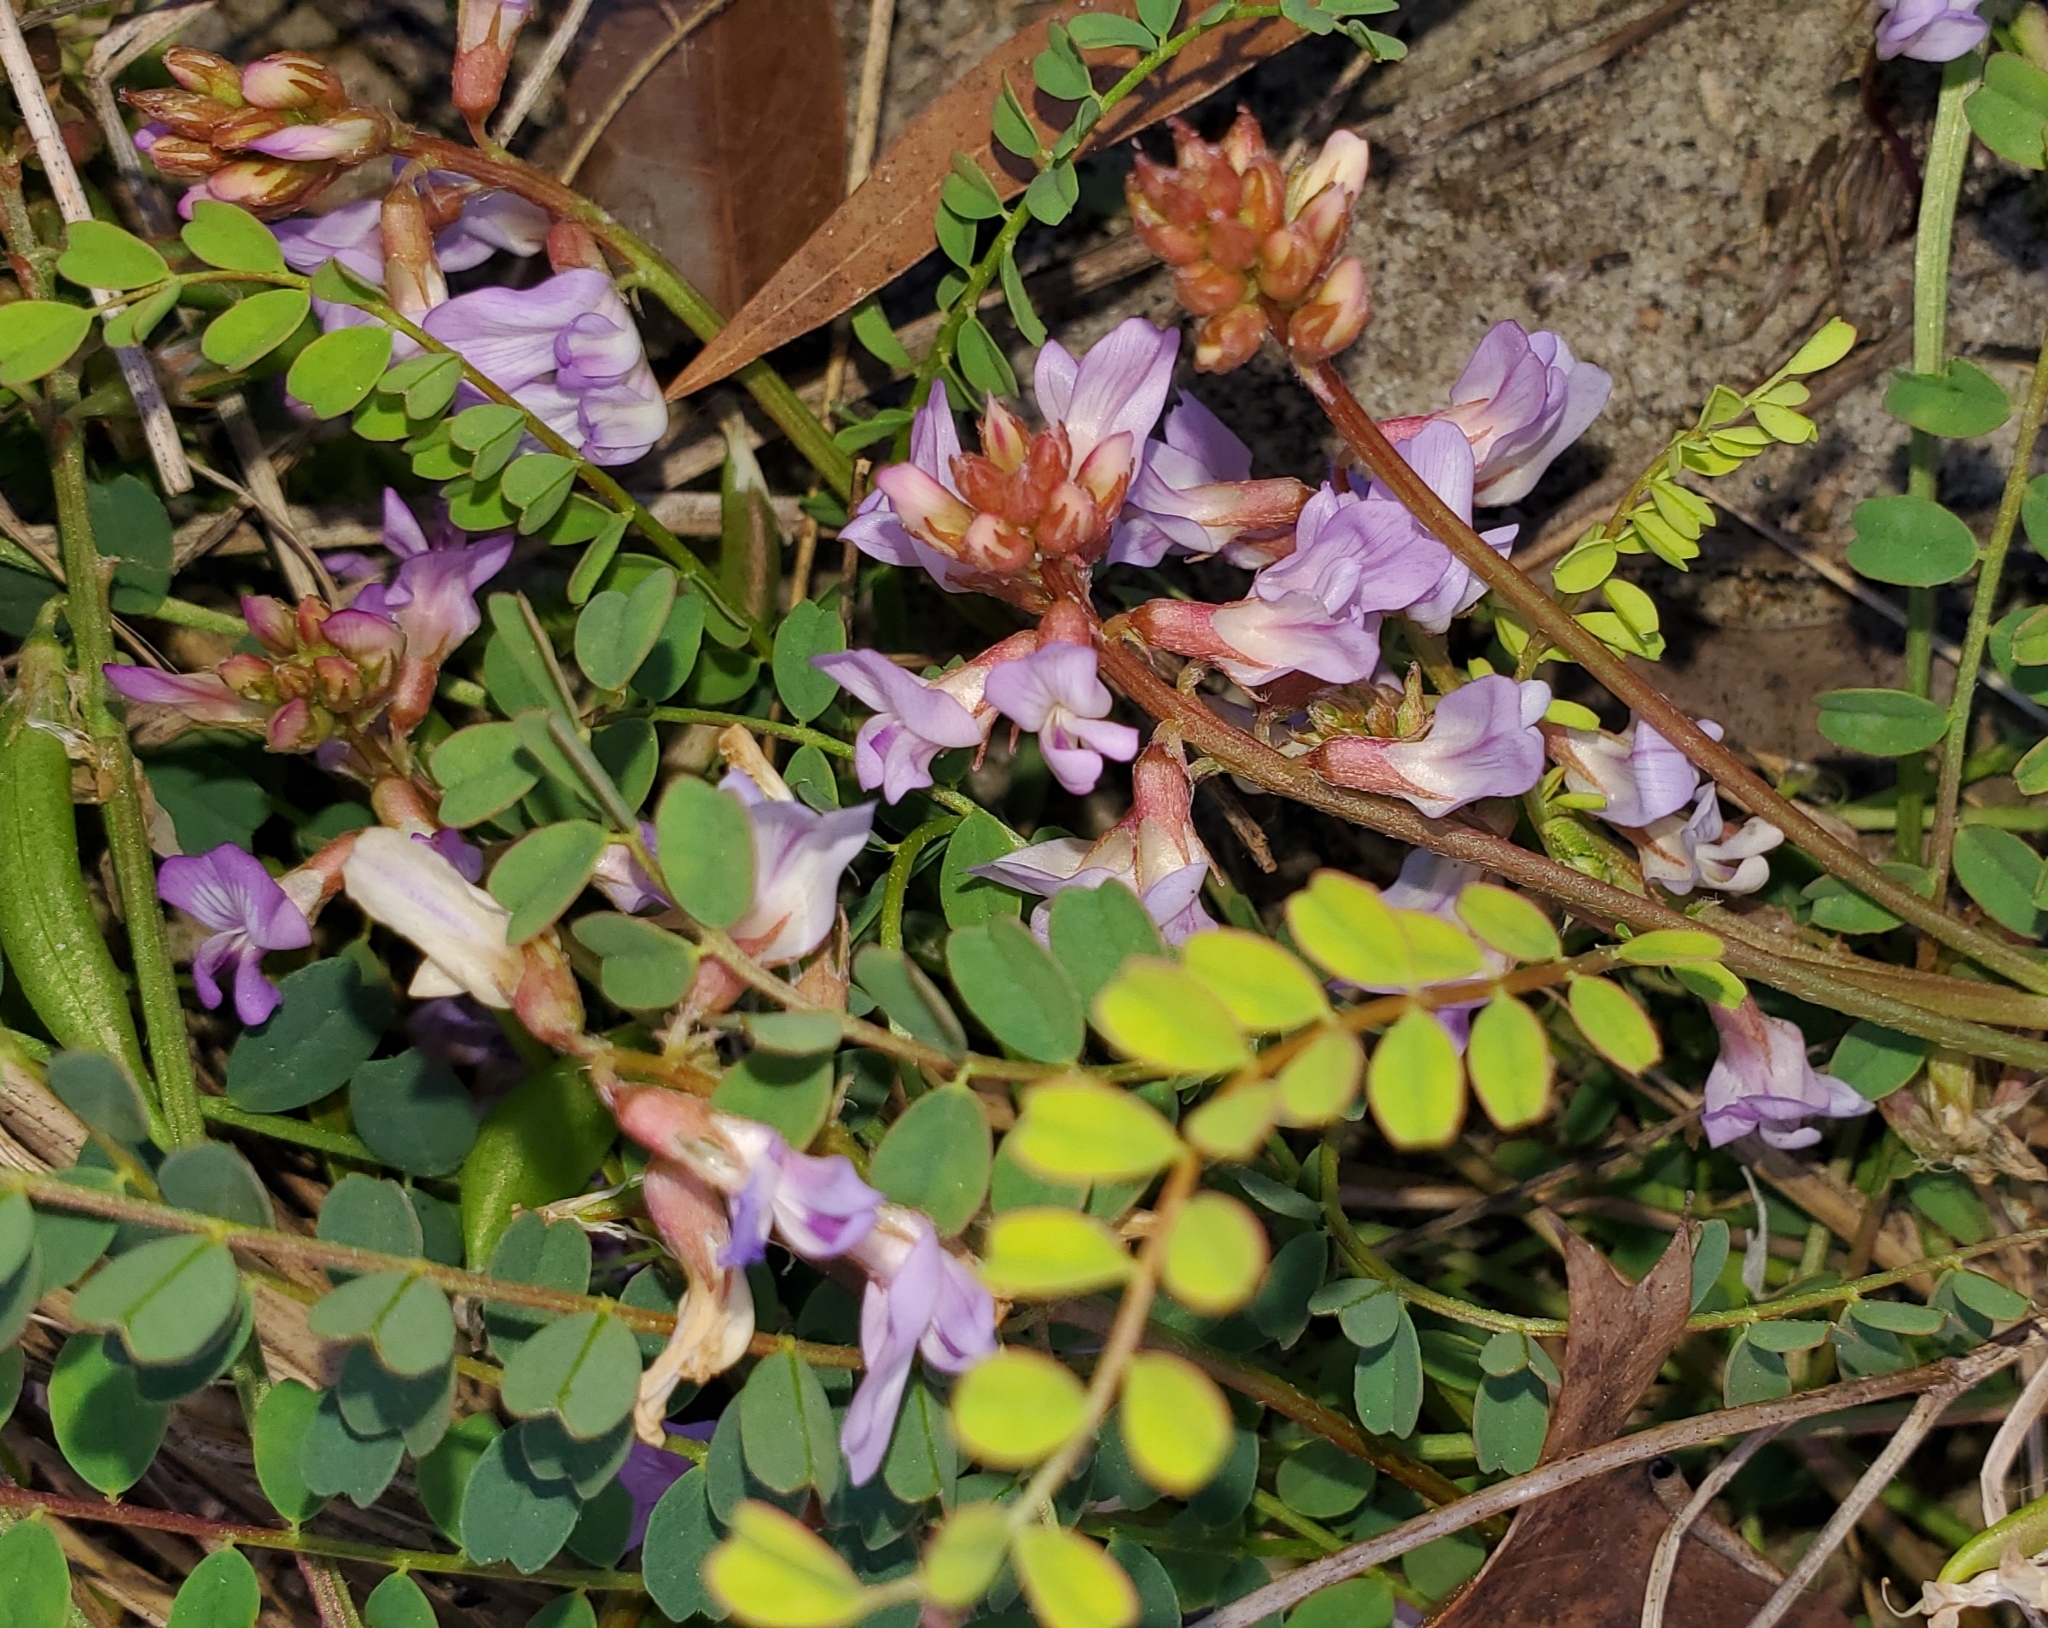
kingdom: Plantae
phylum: Tracheophyta
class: Magnoliopsida
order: Fabales
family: Fabaceae
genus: Astragalus
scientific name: Astragalus obcordatus
